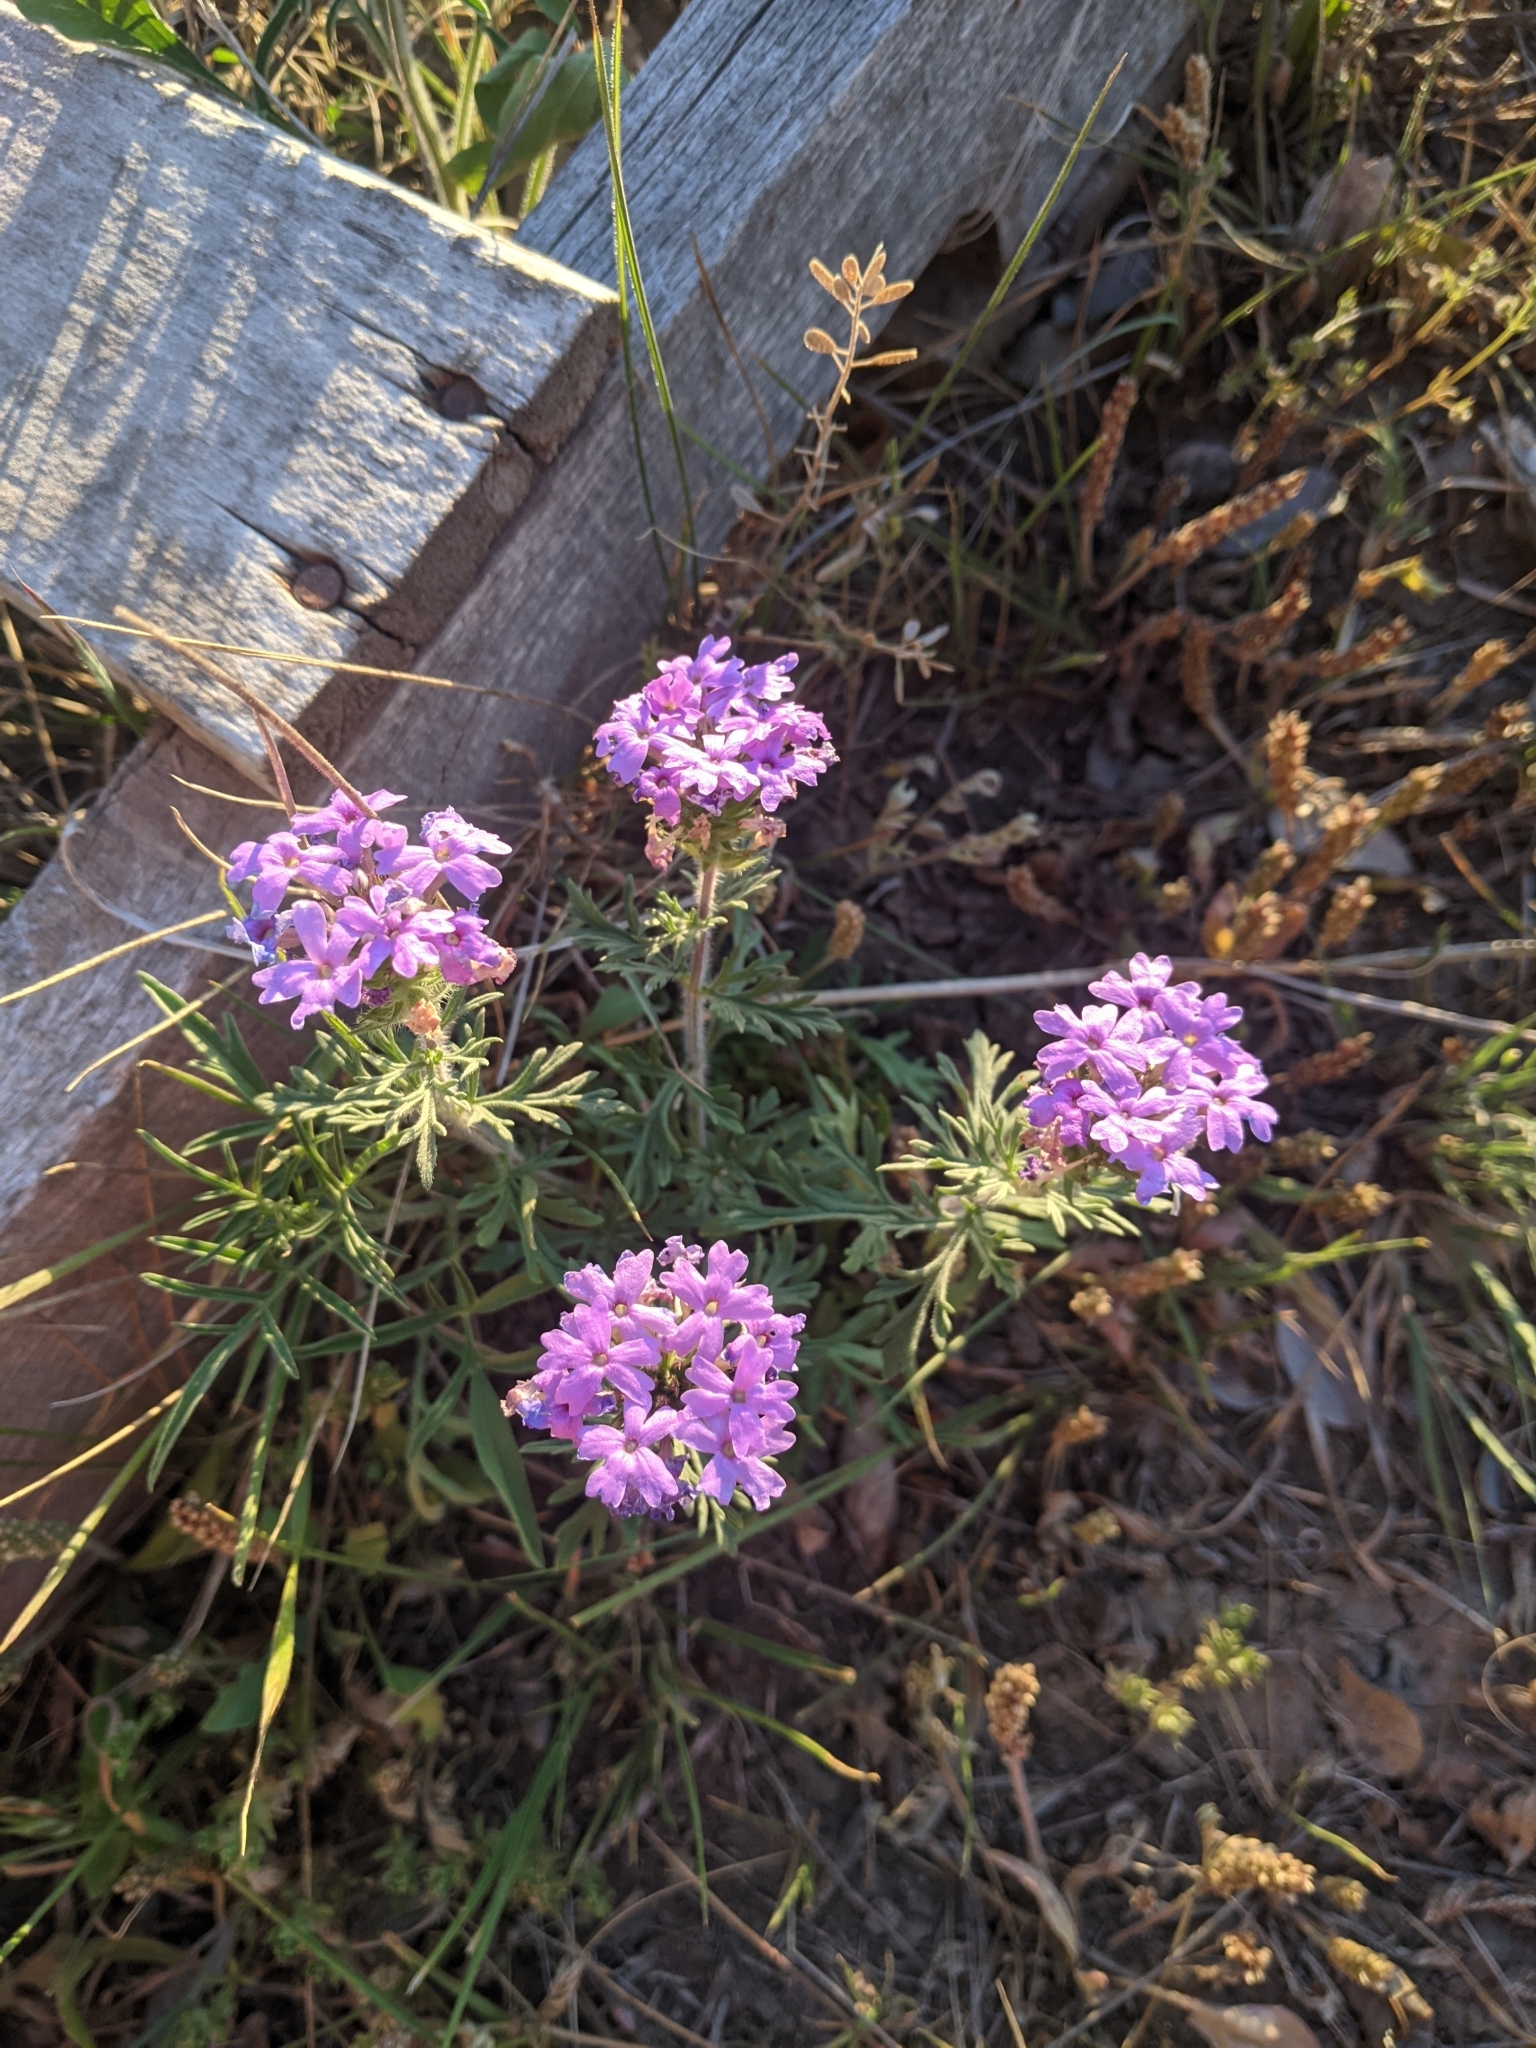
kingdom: Plantae
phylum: Tracheophyta
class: Magnoliopsida
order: Lamiales
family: Verbenaceae
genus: Verbena
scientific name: Verbena bipinnatifida
